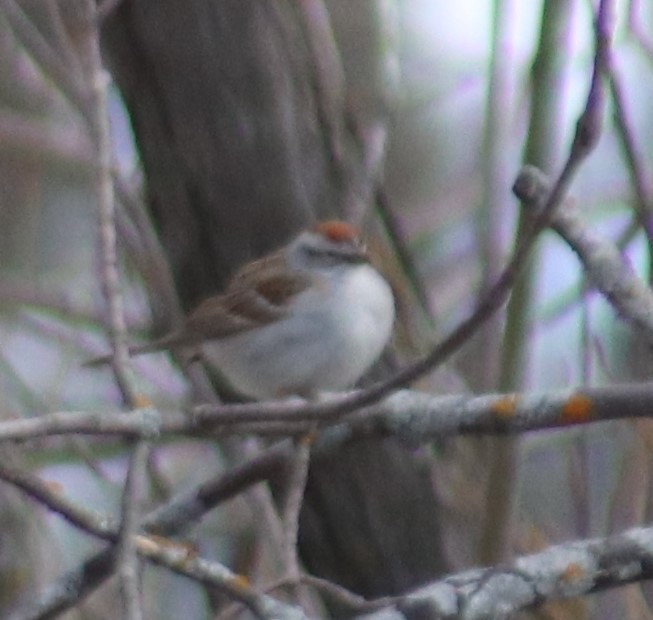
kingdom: Animalia
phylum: Chordata
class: Aves
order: Passeriformes
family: Passerellidae
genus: Spizella
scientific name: Spizella passerina
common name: Chipping sparrow
